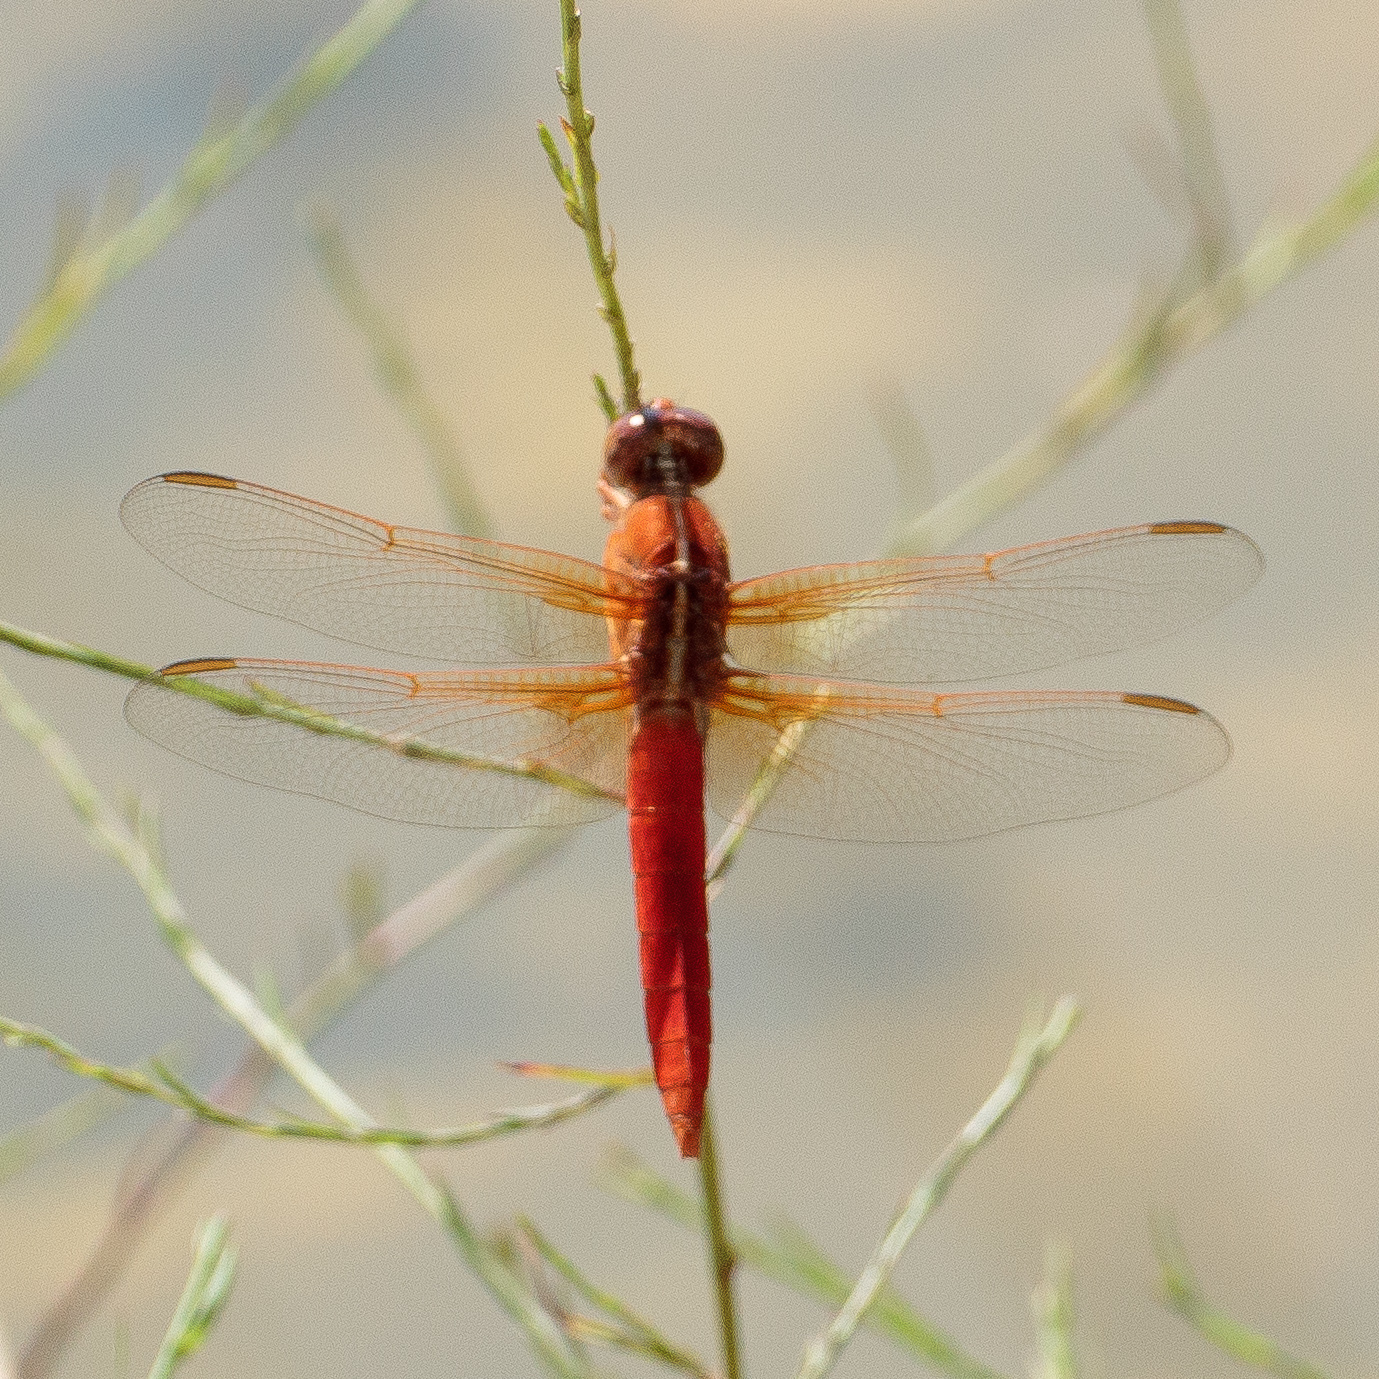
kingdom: Animalia
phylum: Arthropoda
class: Insecta
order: Odonata
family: Libellulidae
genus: Libellula
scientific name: Libellula croceipennis
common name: Neon skimmer
